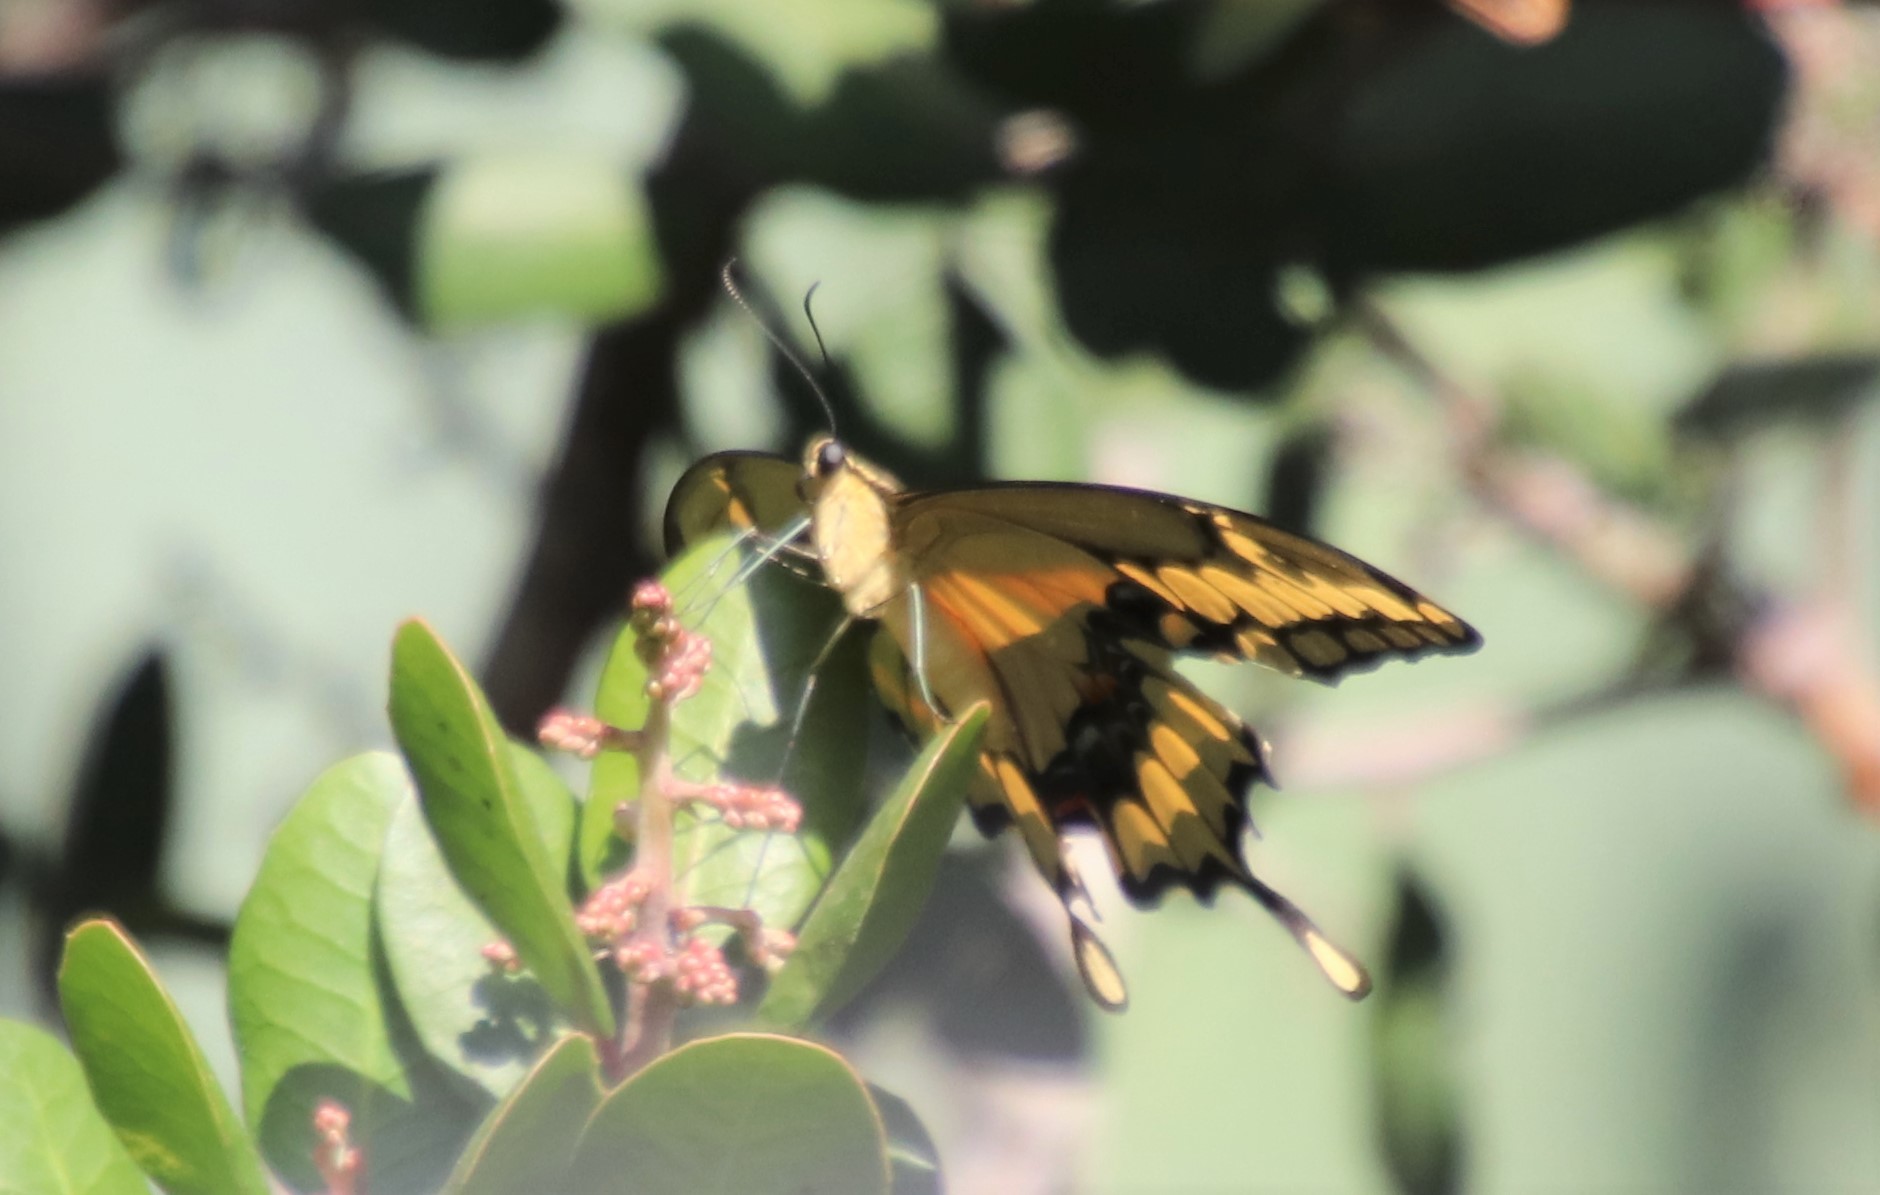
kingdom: Animalia
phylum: Arthropoda
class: Insecta
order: Lepidoptera
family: Papilionidae
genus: Papilio
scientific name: Papilio rumiko
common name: Western giant swallowtail
